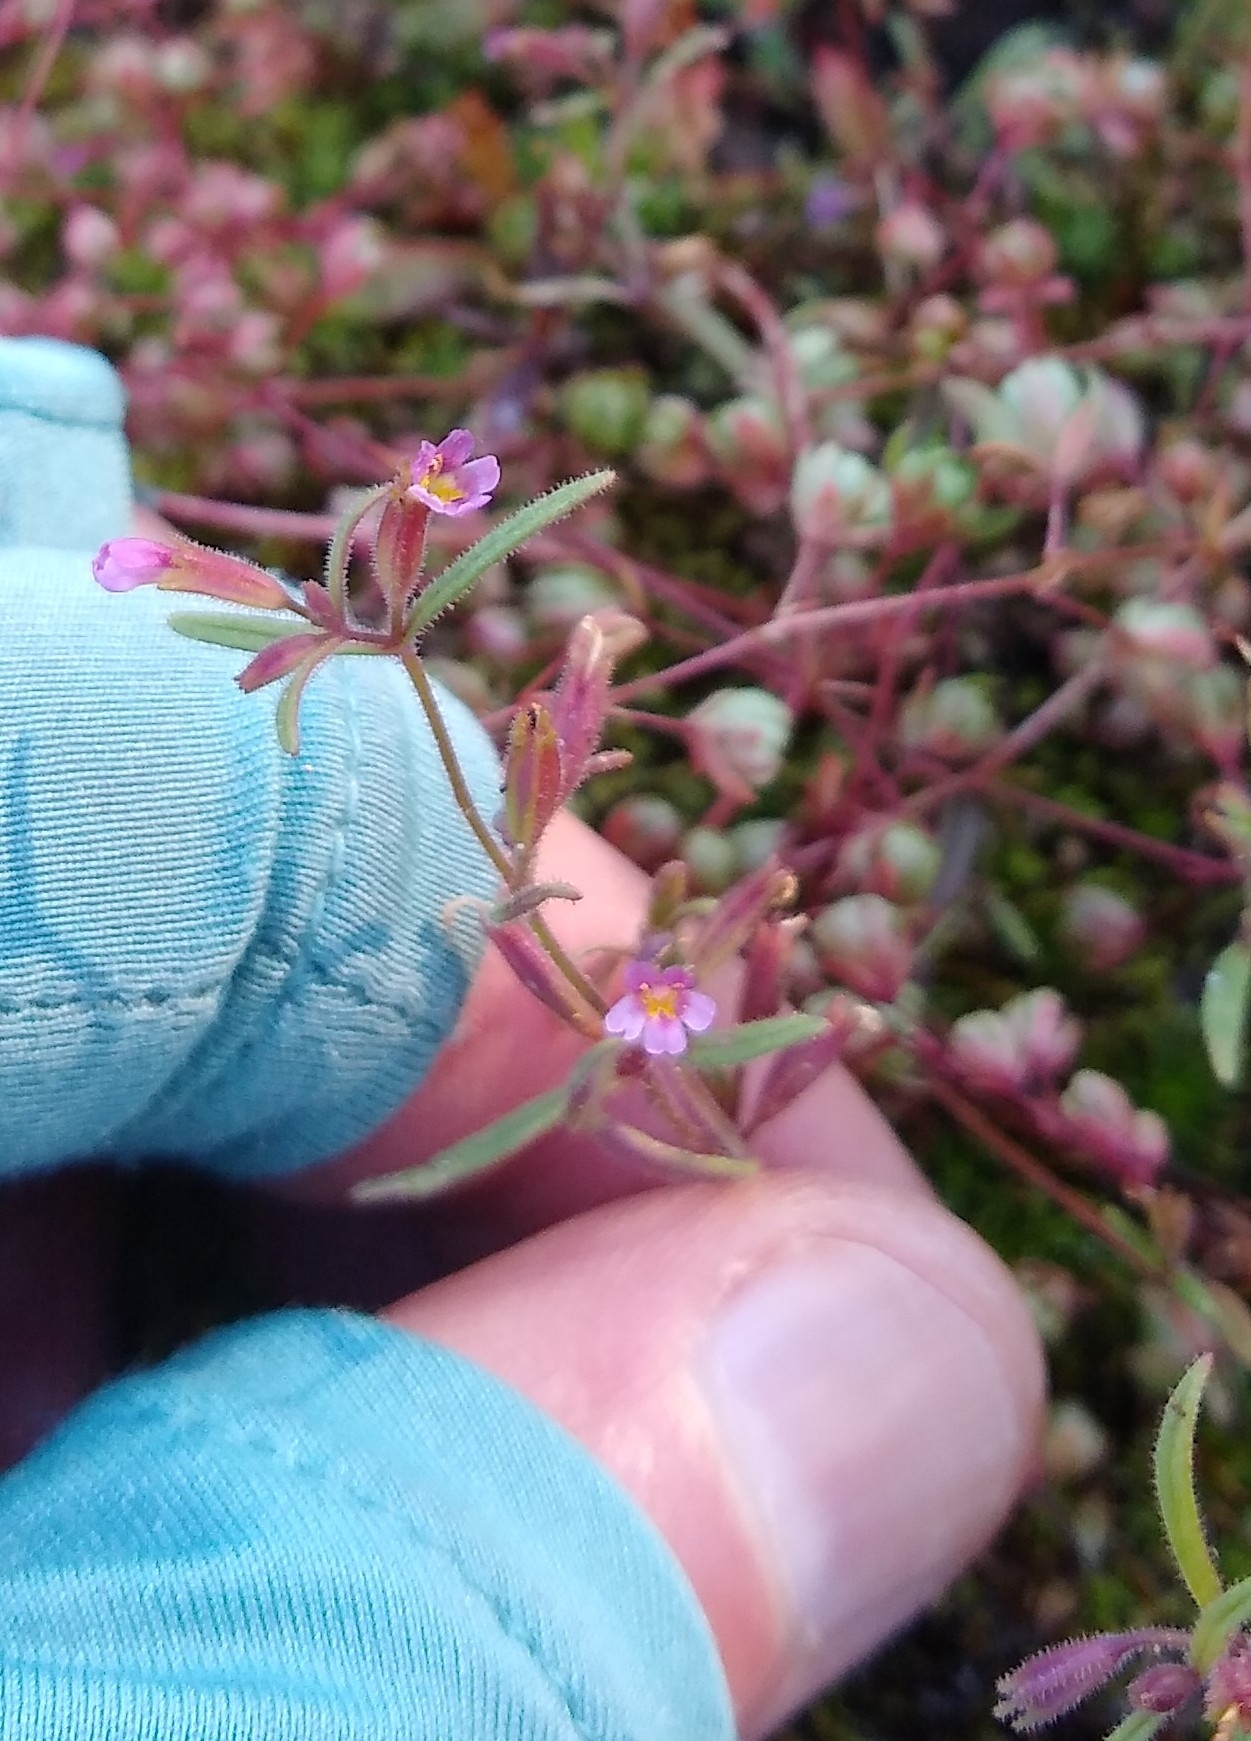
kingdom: Plantae
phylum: Tracheophyta
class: Magnoliopsida
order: Lamiales
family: Phrymaceae
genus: Erythranthe
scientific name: Erythranthe breweri
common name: Brewer's monkeyflower
